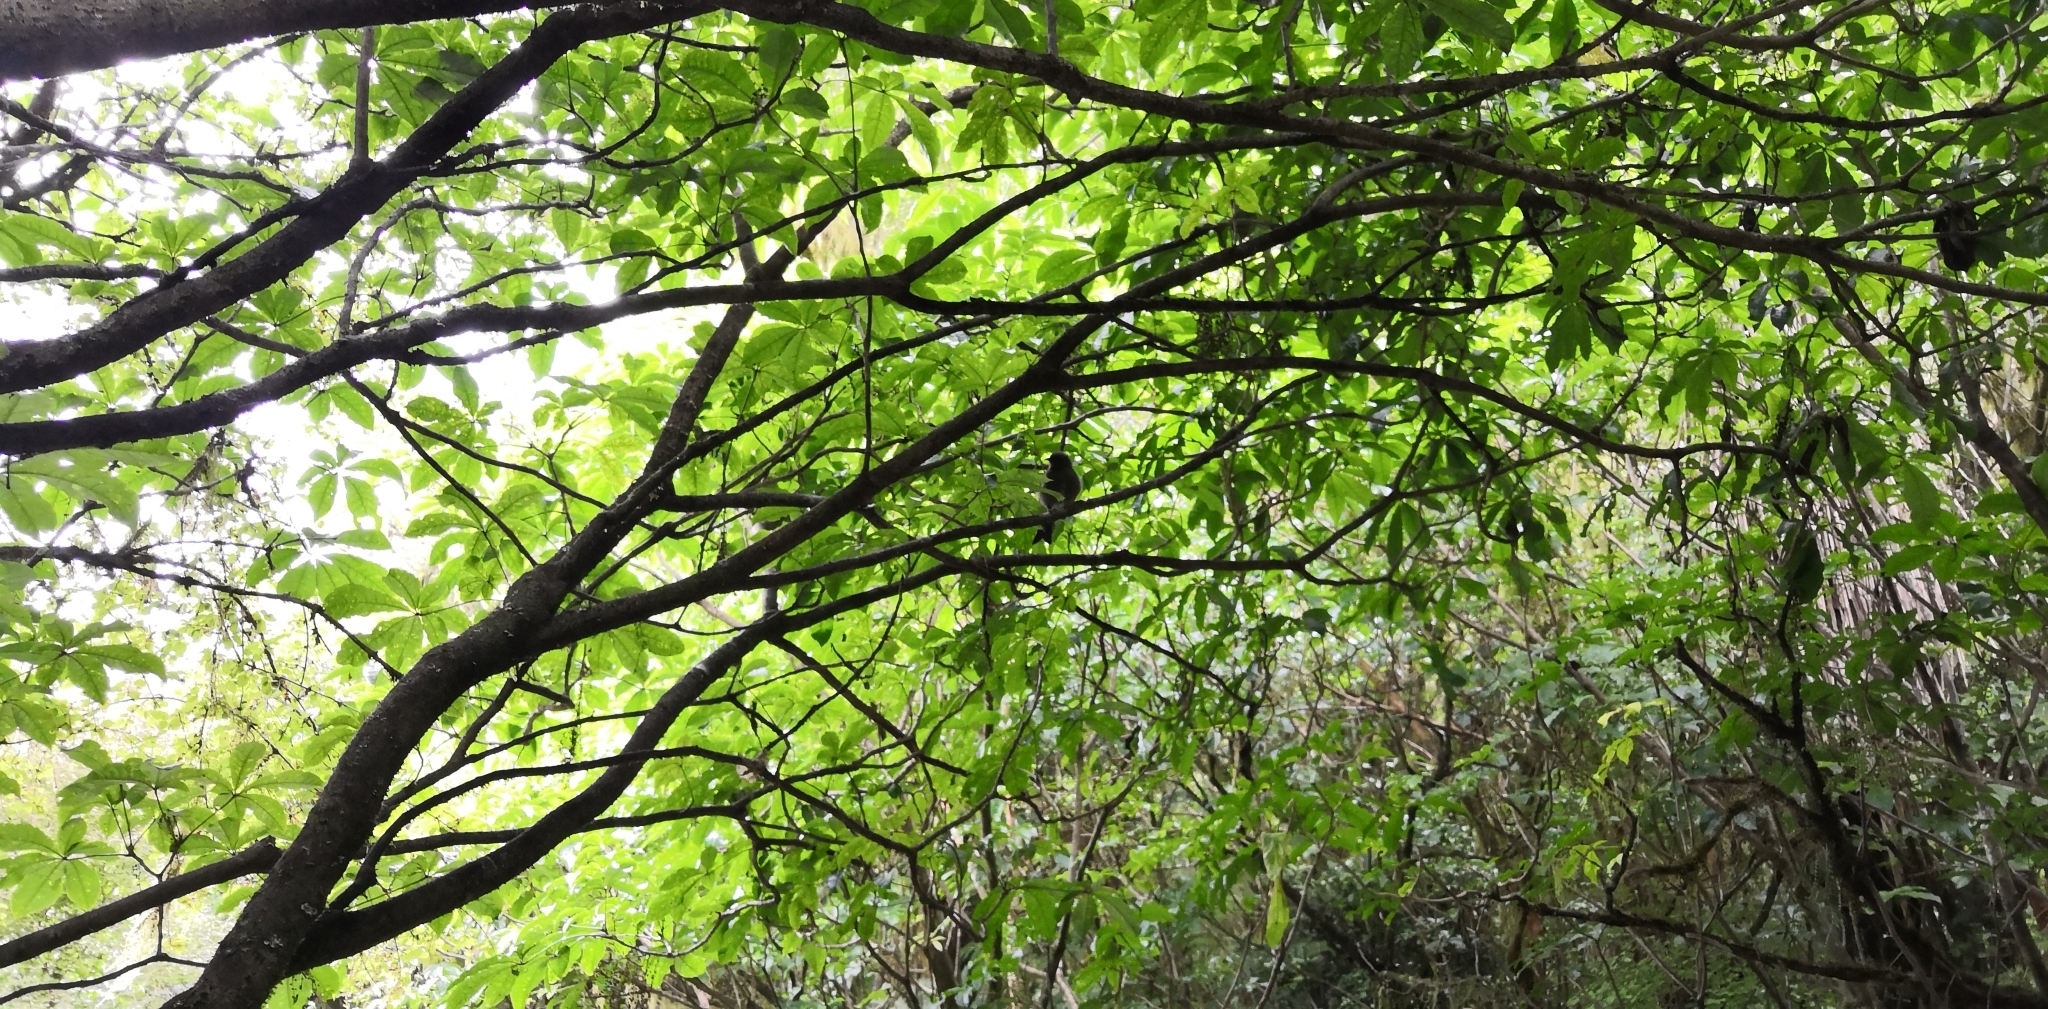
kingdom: Animalia
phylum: Chordata
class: Aves
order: Passeriformes
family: Meliphagidae
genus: Anthornis
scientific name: Anthornis melanura
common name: New zealand bellbird
